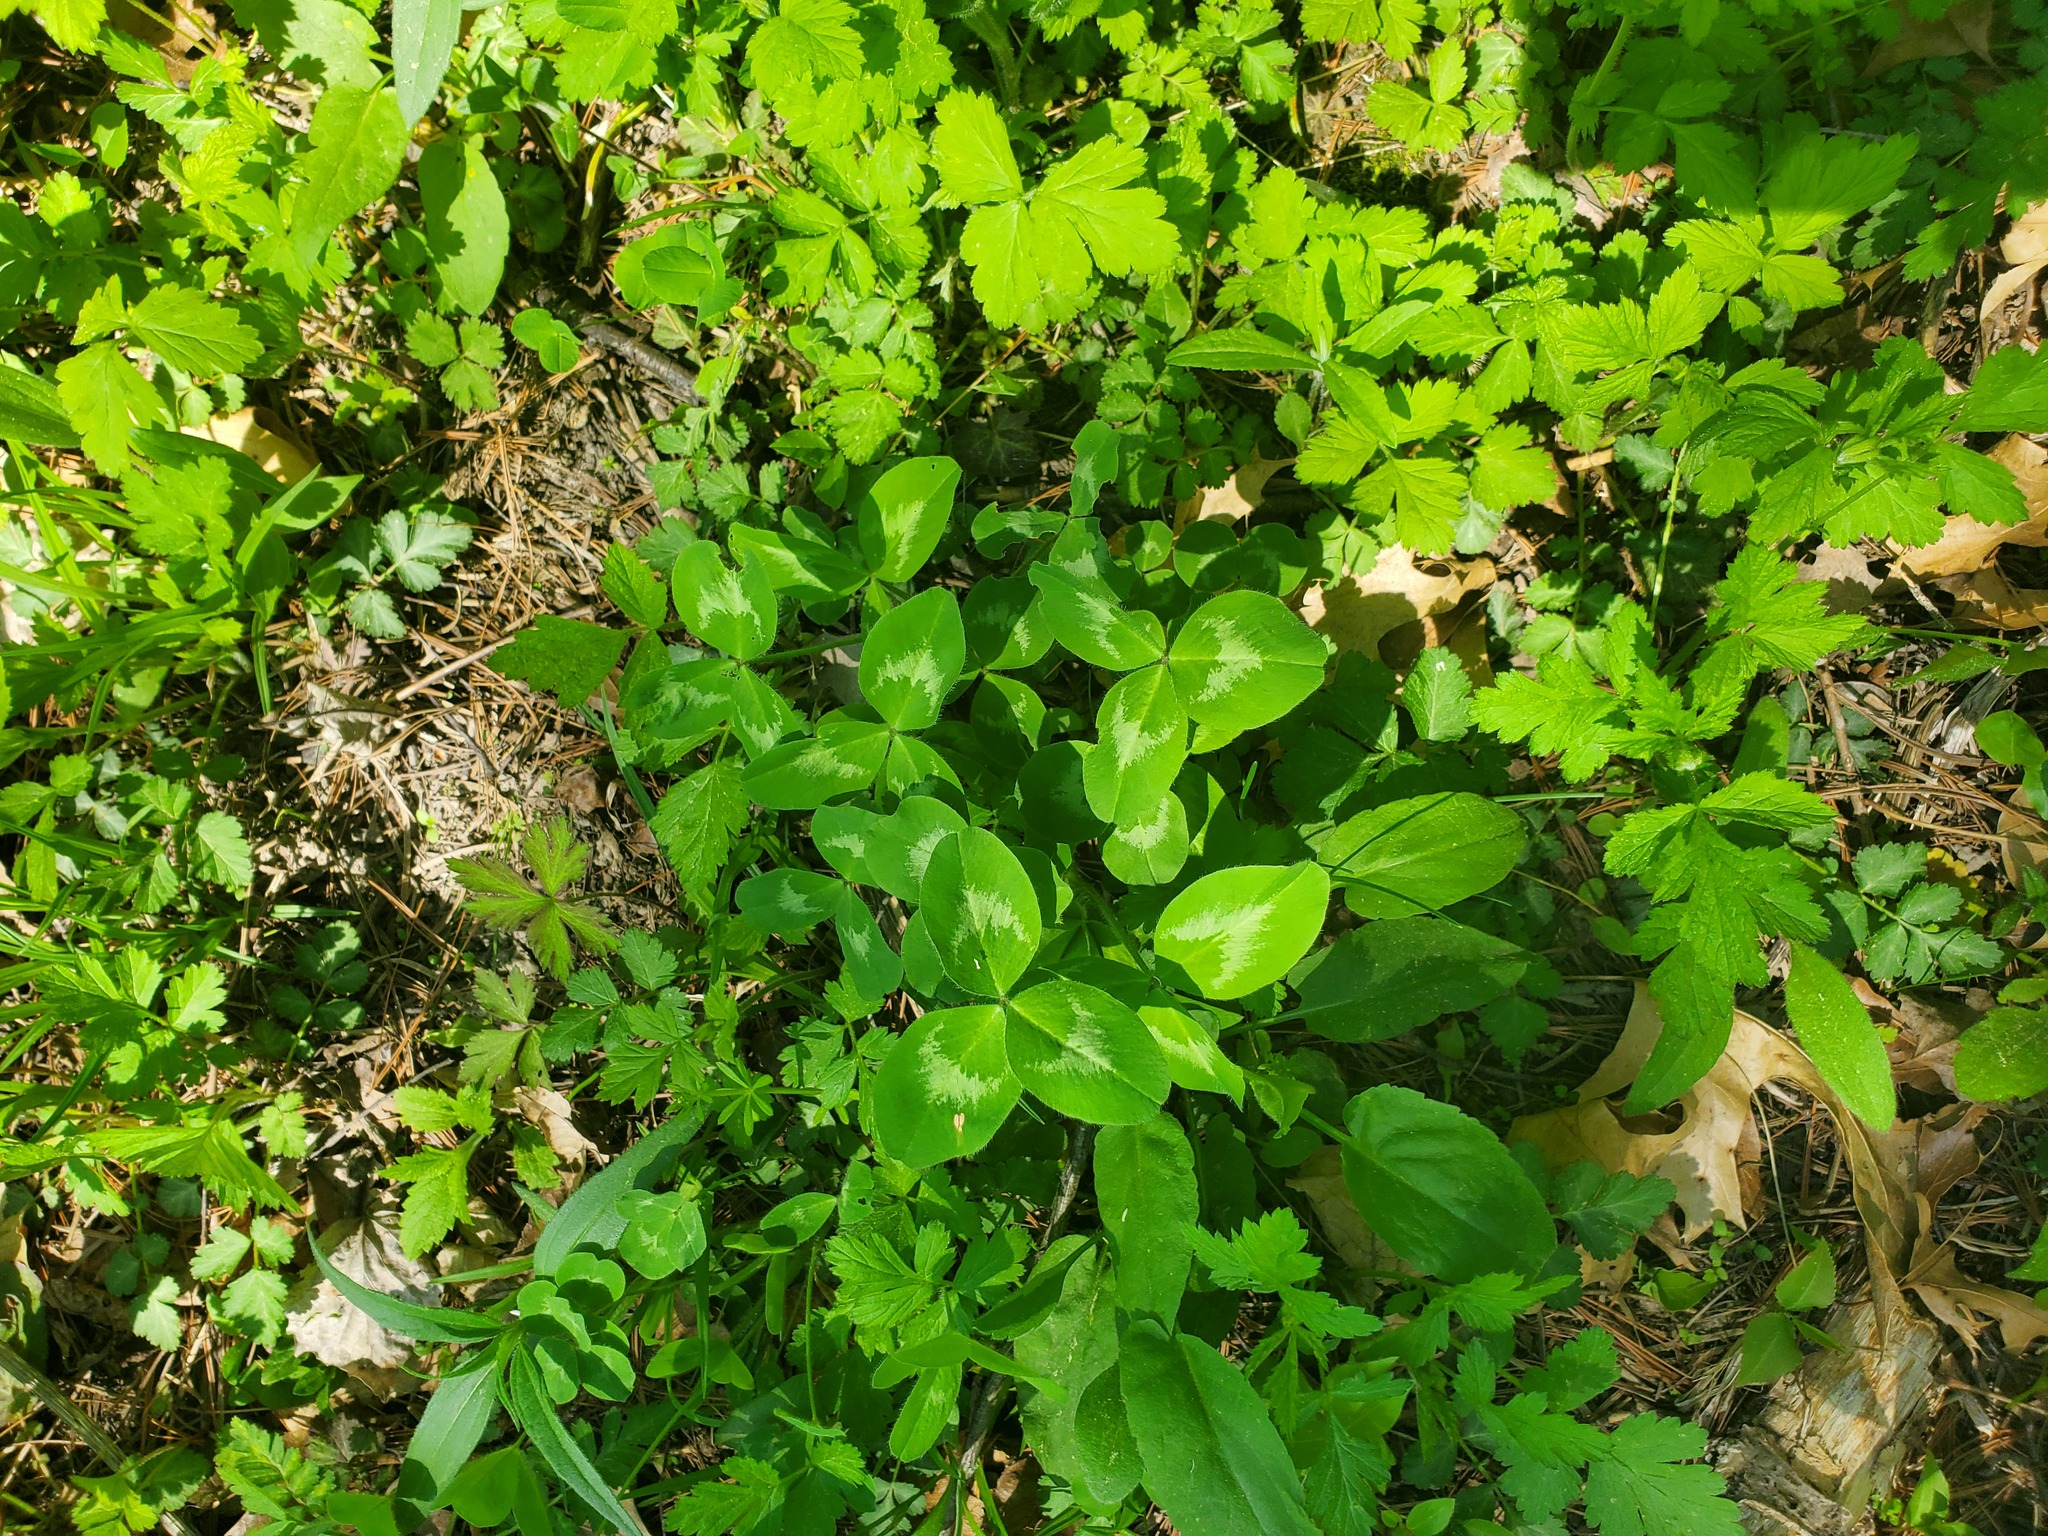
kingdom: Plantae
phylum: Tracheophyta
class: Magnoliopsida
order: Fabales
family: Fabaceae
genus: Trifolium
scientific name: Trifolium pratense
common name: Red clover
